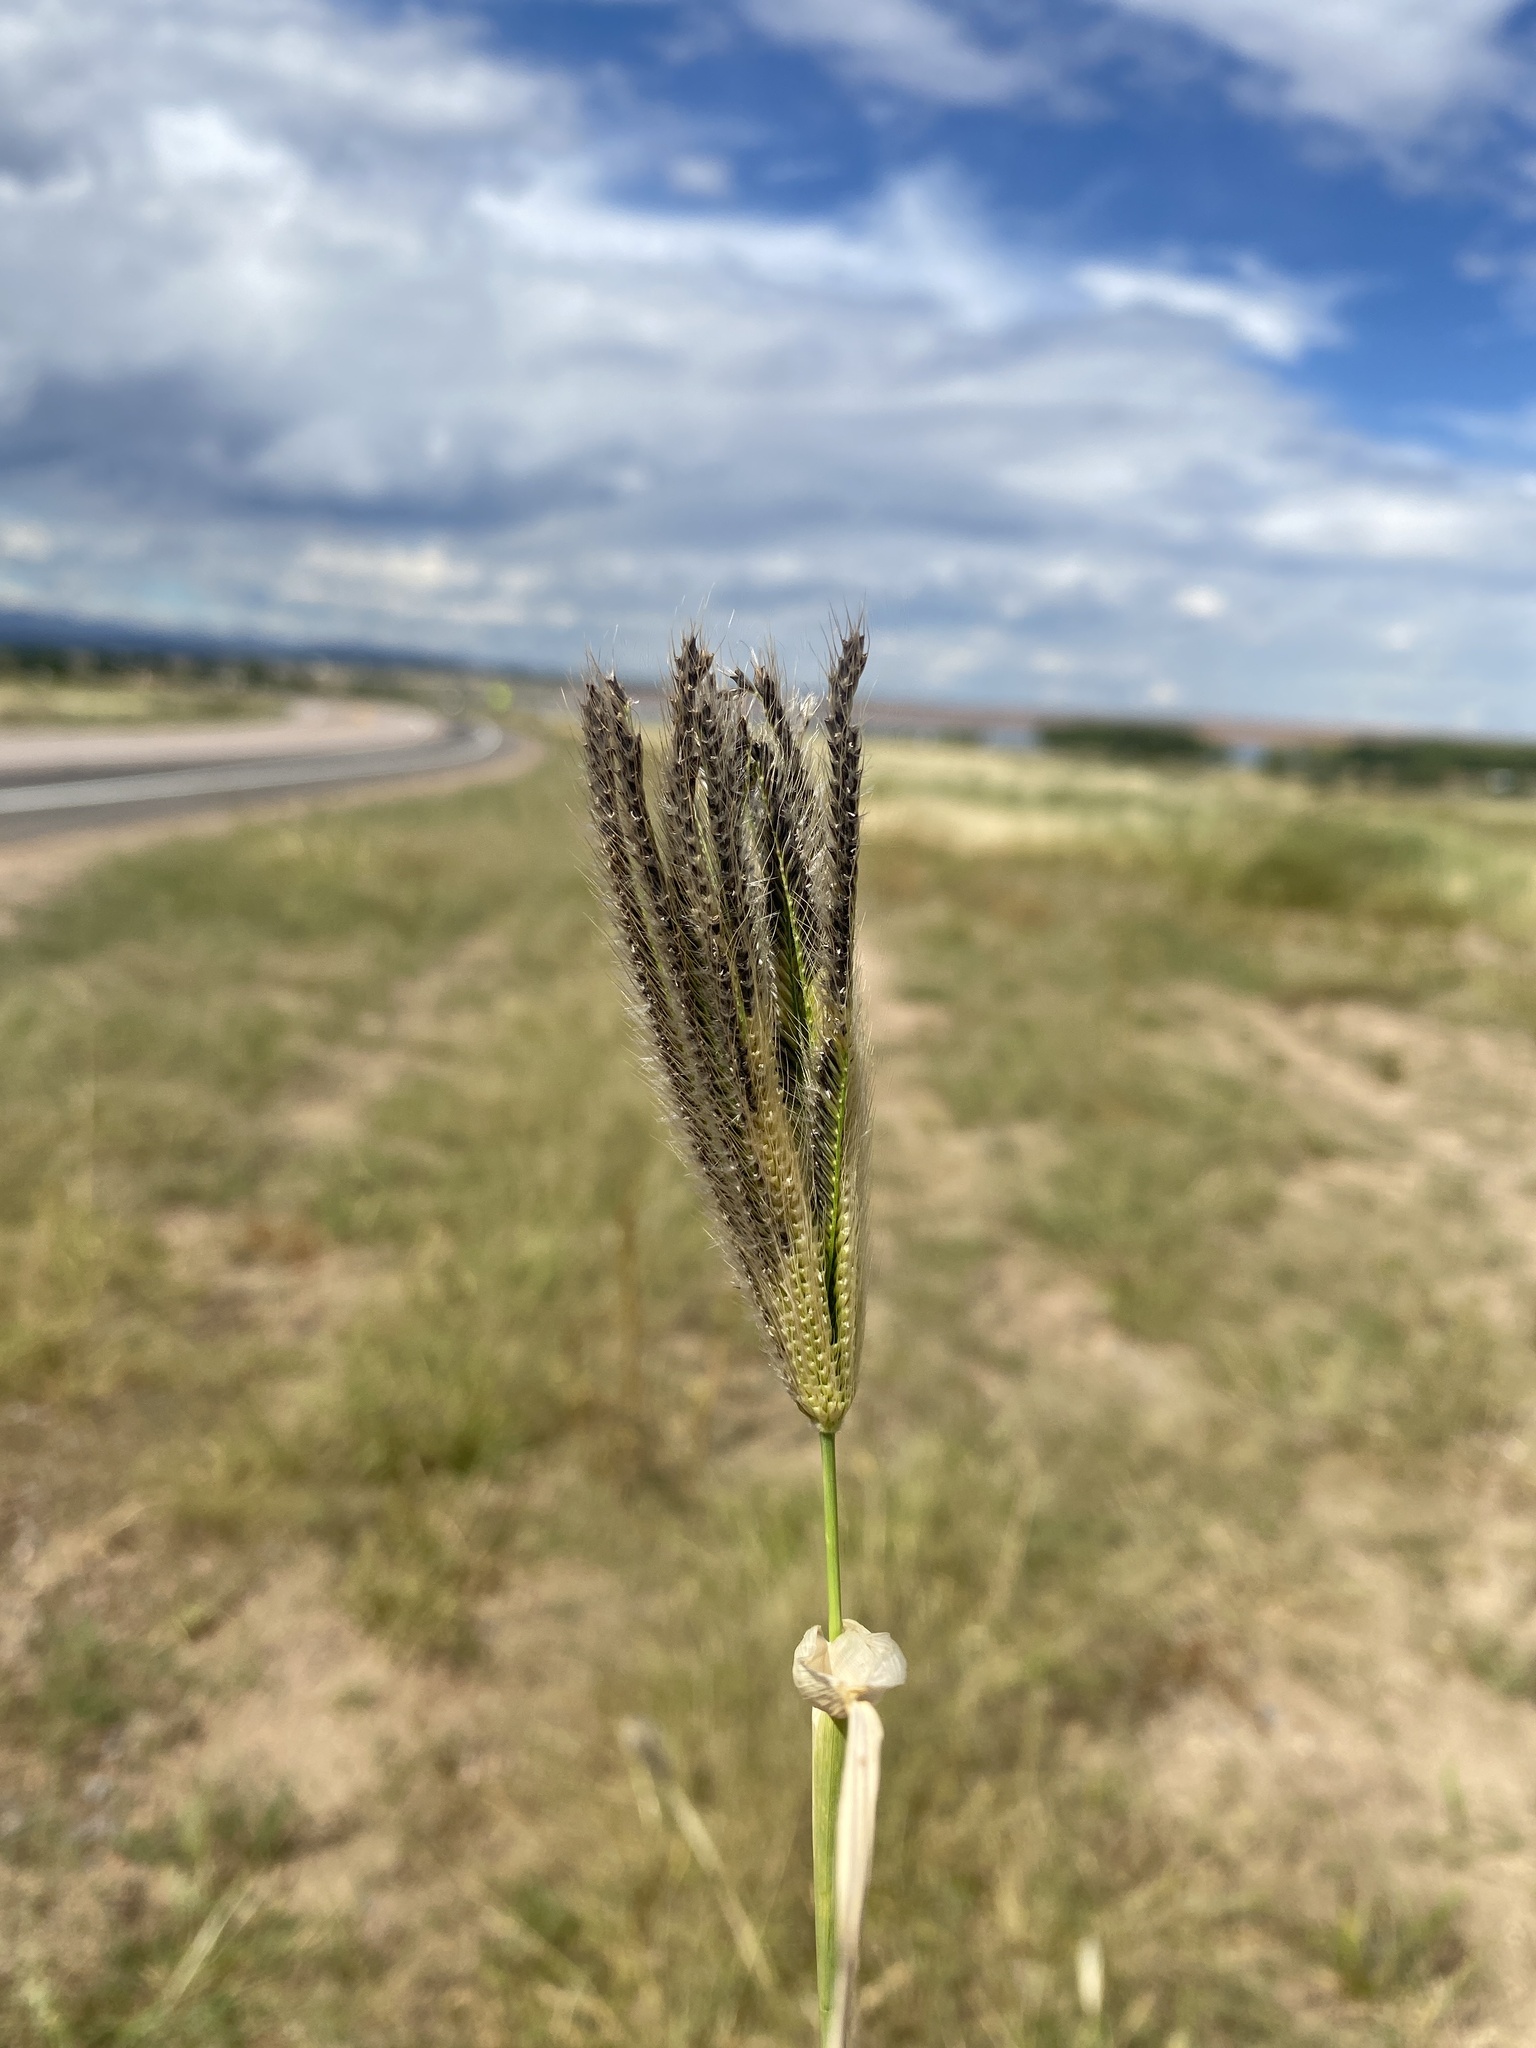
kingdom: Plantae
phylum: Tracheophyta
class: Liliopsida
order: Poales
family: Poaceae
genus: Chloris
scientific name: Chloris virgata
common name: Feathery rhodes-grass
